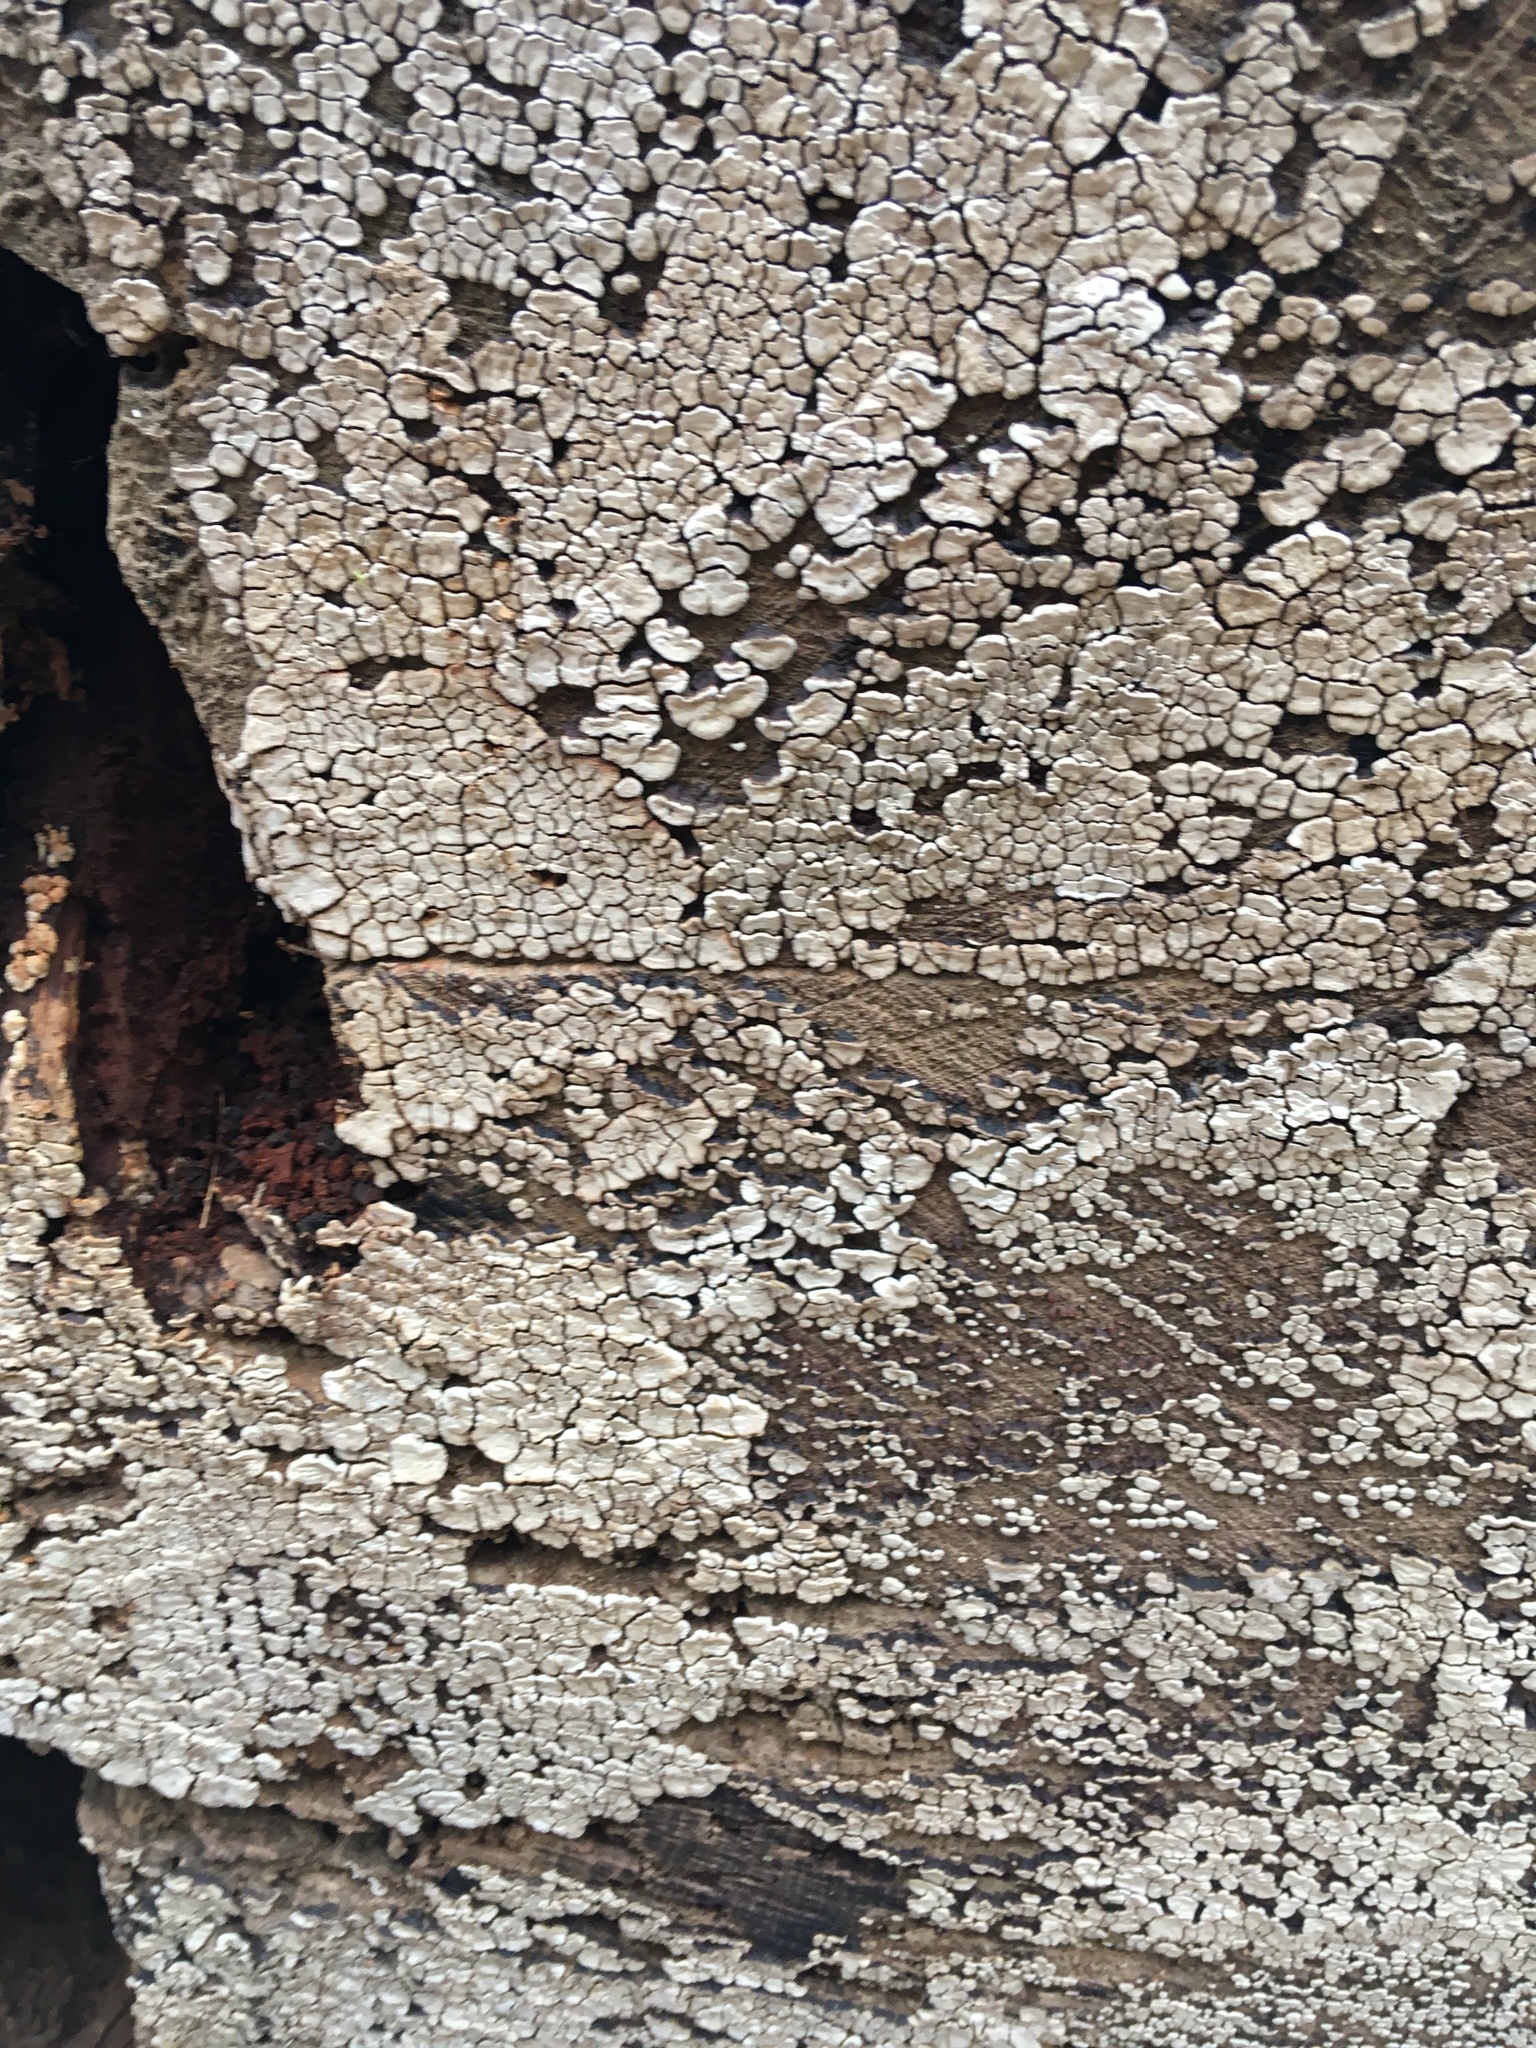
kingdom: Fungi
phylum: Basidiomycota
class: Agaricomycetes
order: Russulales
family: Stereaceae
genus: Xylobolus
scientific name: Xylobolus frustulatus
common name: Ceramic parchment
